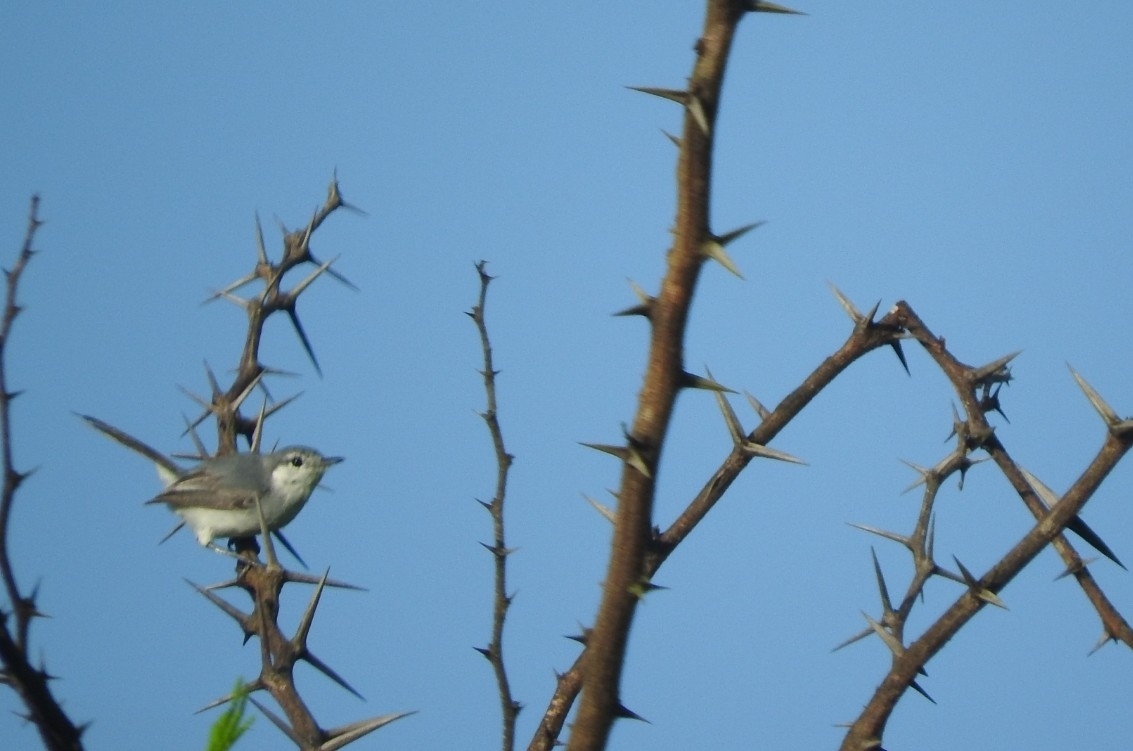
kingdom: Animalia
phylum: Chordata
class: Aves
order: Passeriformes
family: Polioptilidae
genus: Polioptila
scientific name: Polioptila caerulea
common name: Blue-gray gnatcatcher
